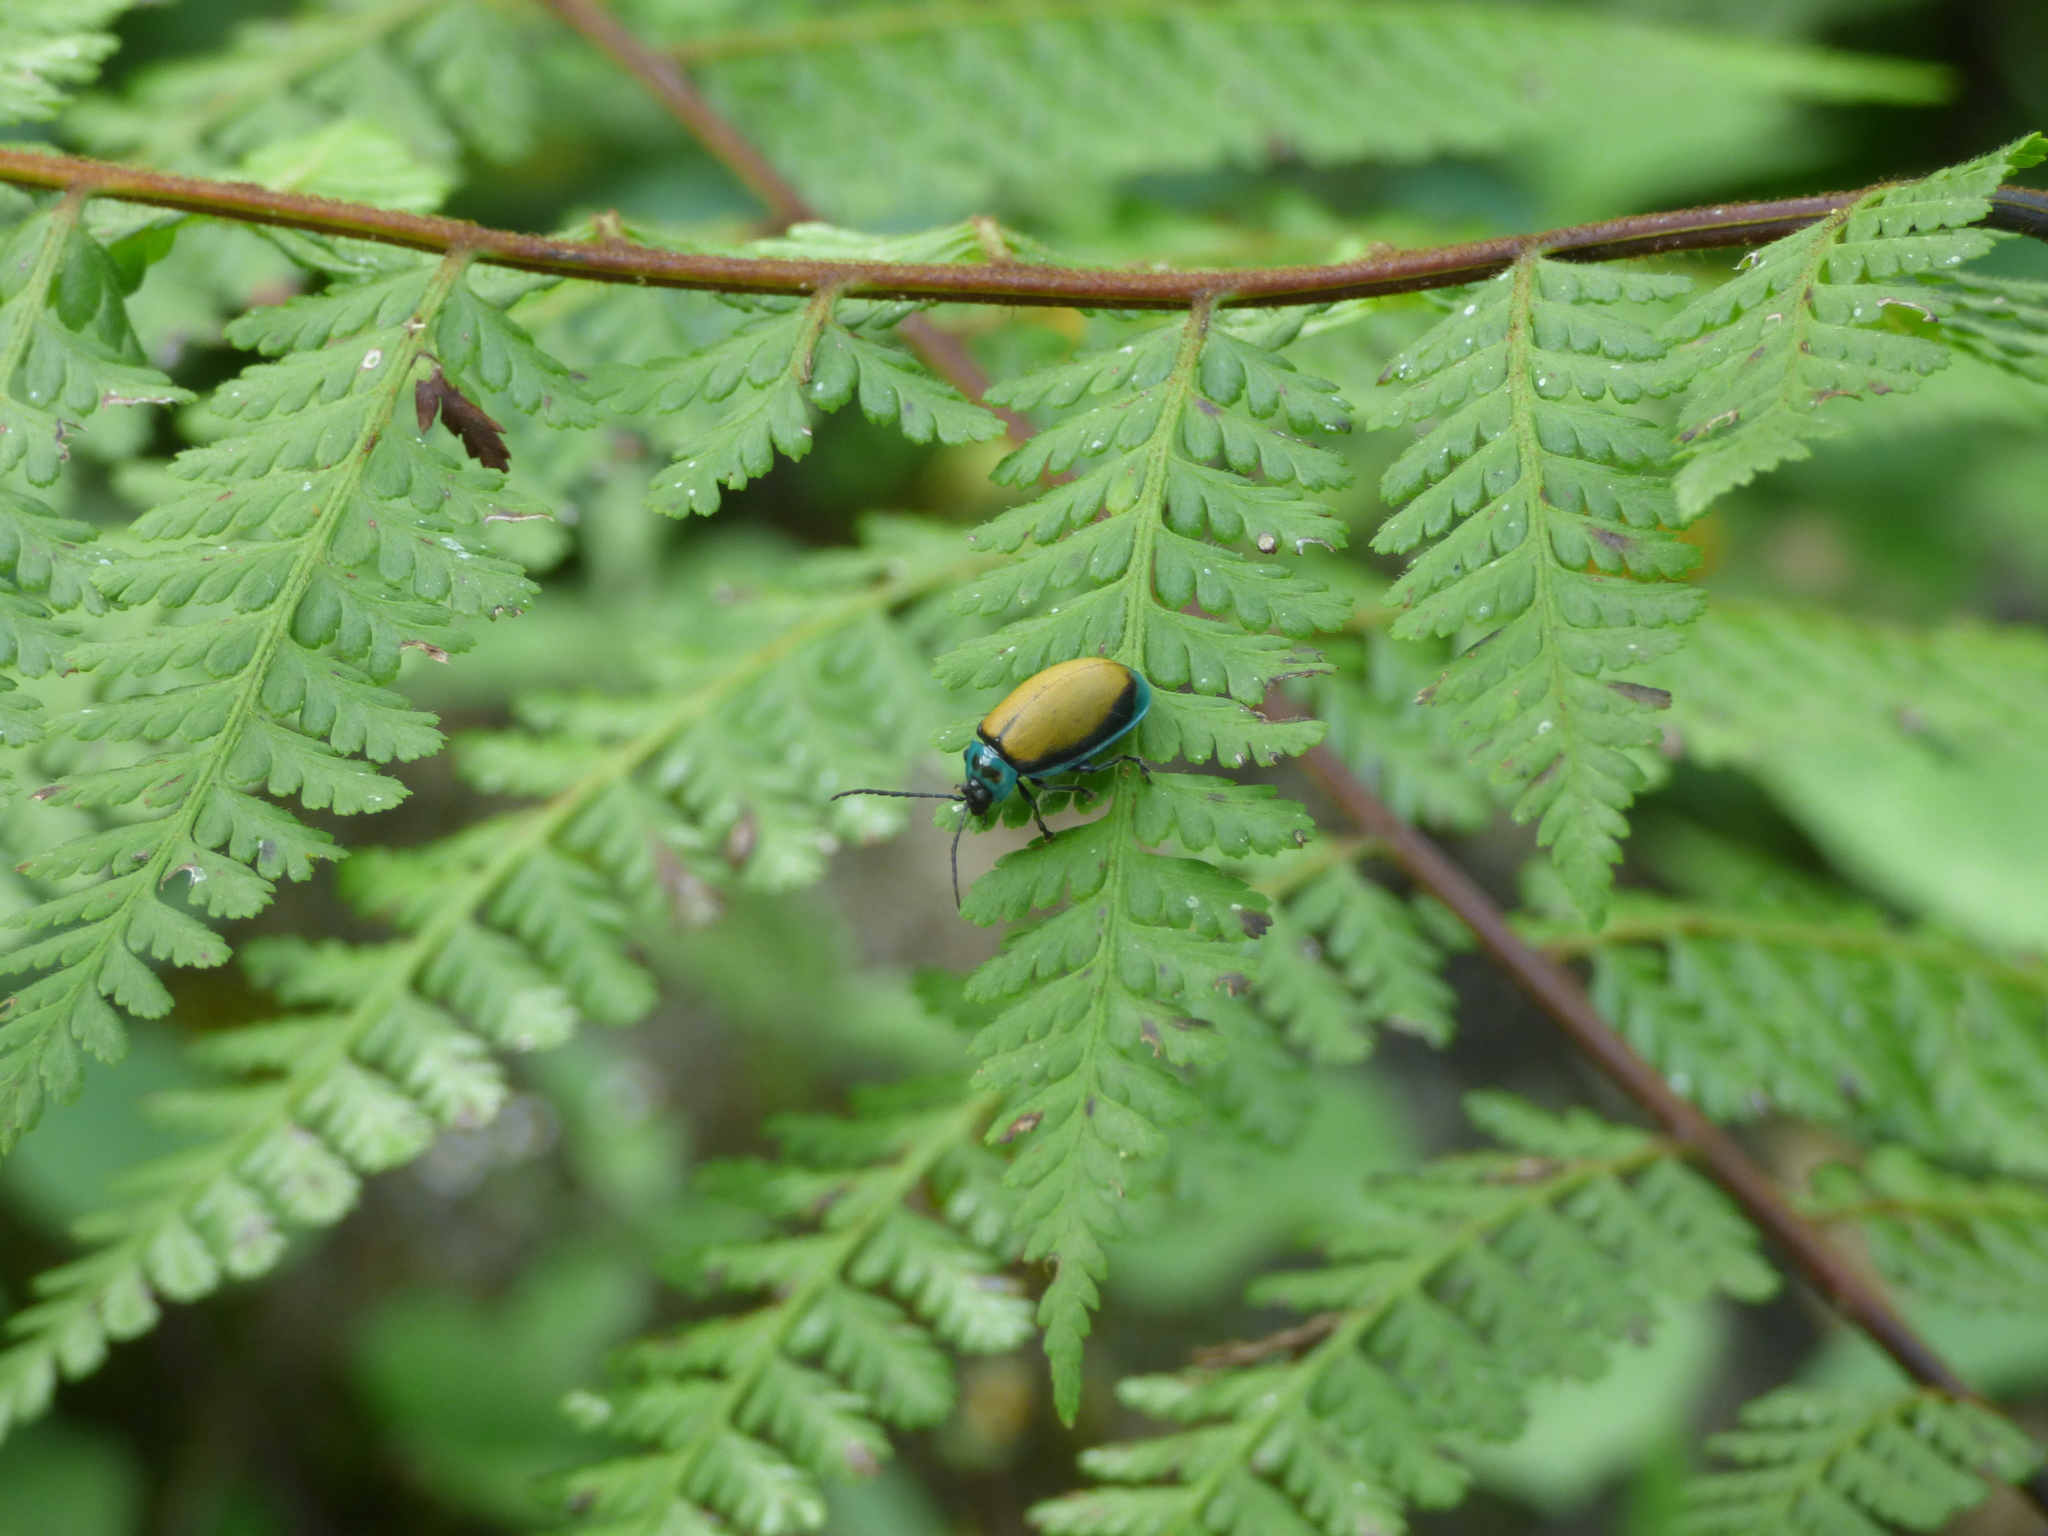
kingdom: Animalia
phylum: Arthropoda
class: Insecta
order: Coleoptera
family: Chrysomelidae
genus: Aspicela
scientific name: Aspicela
